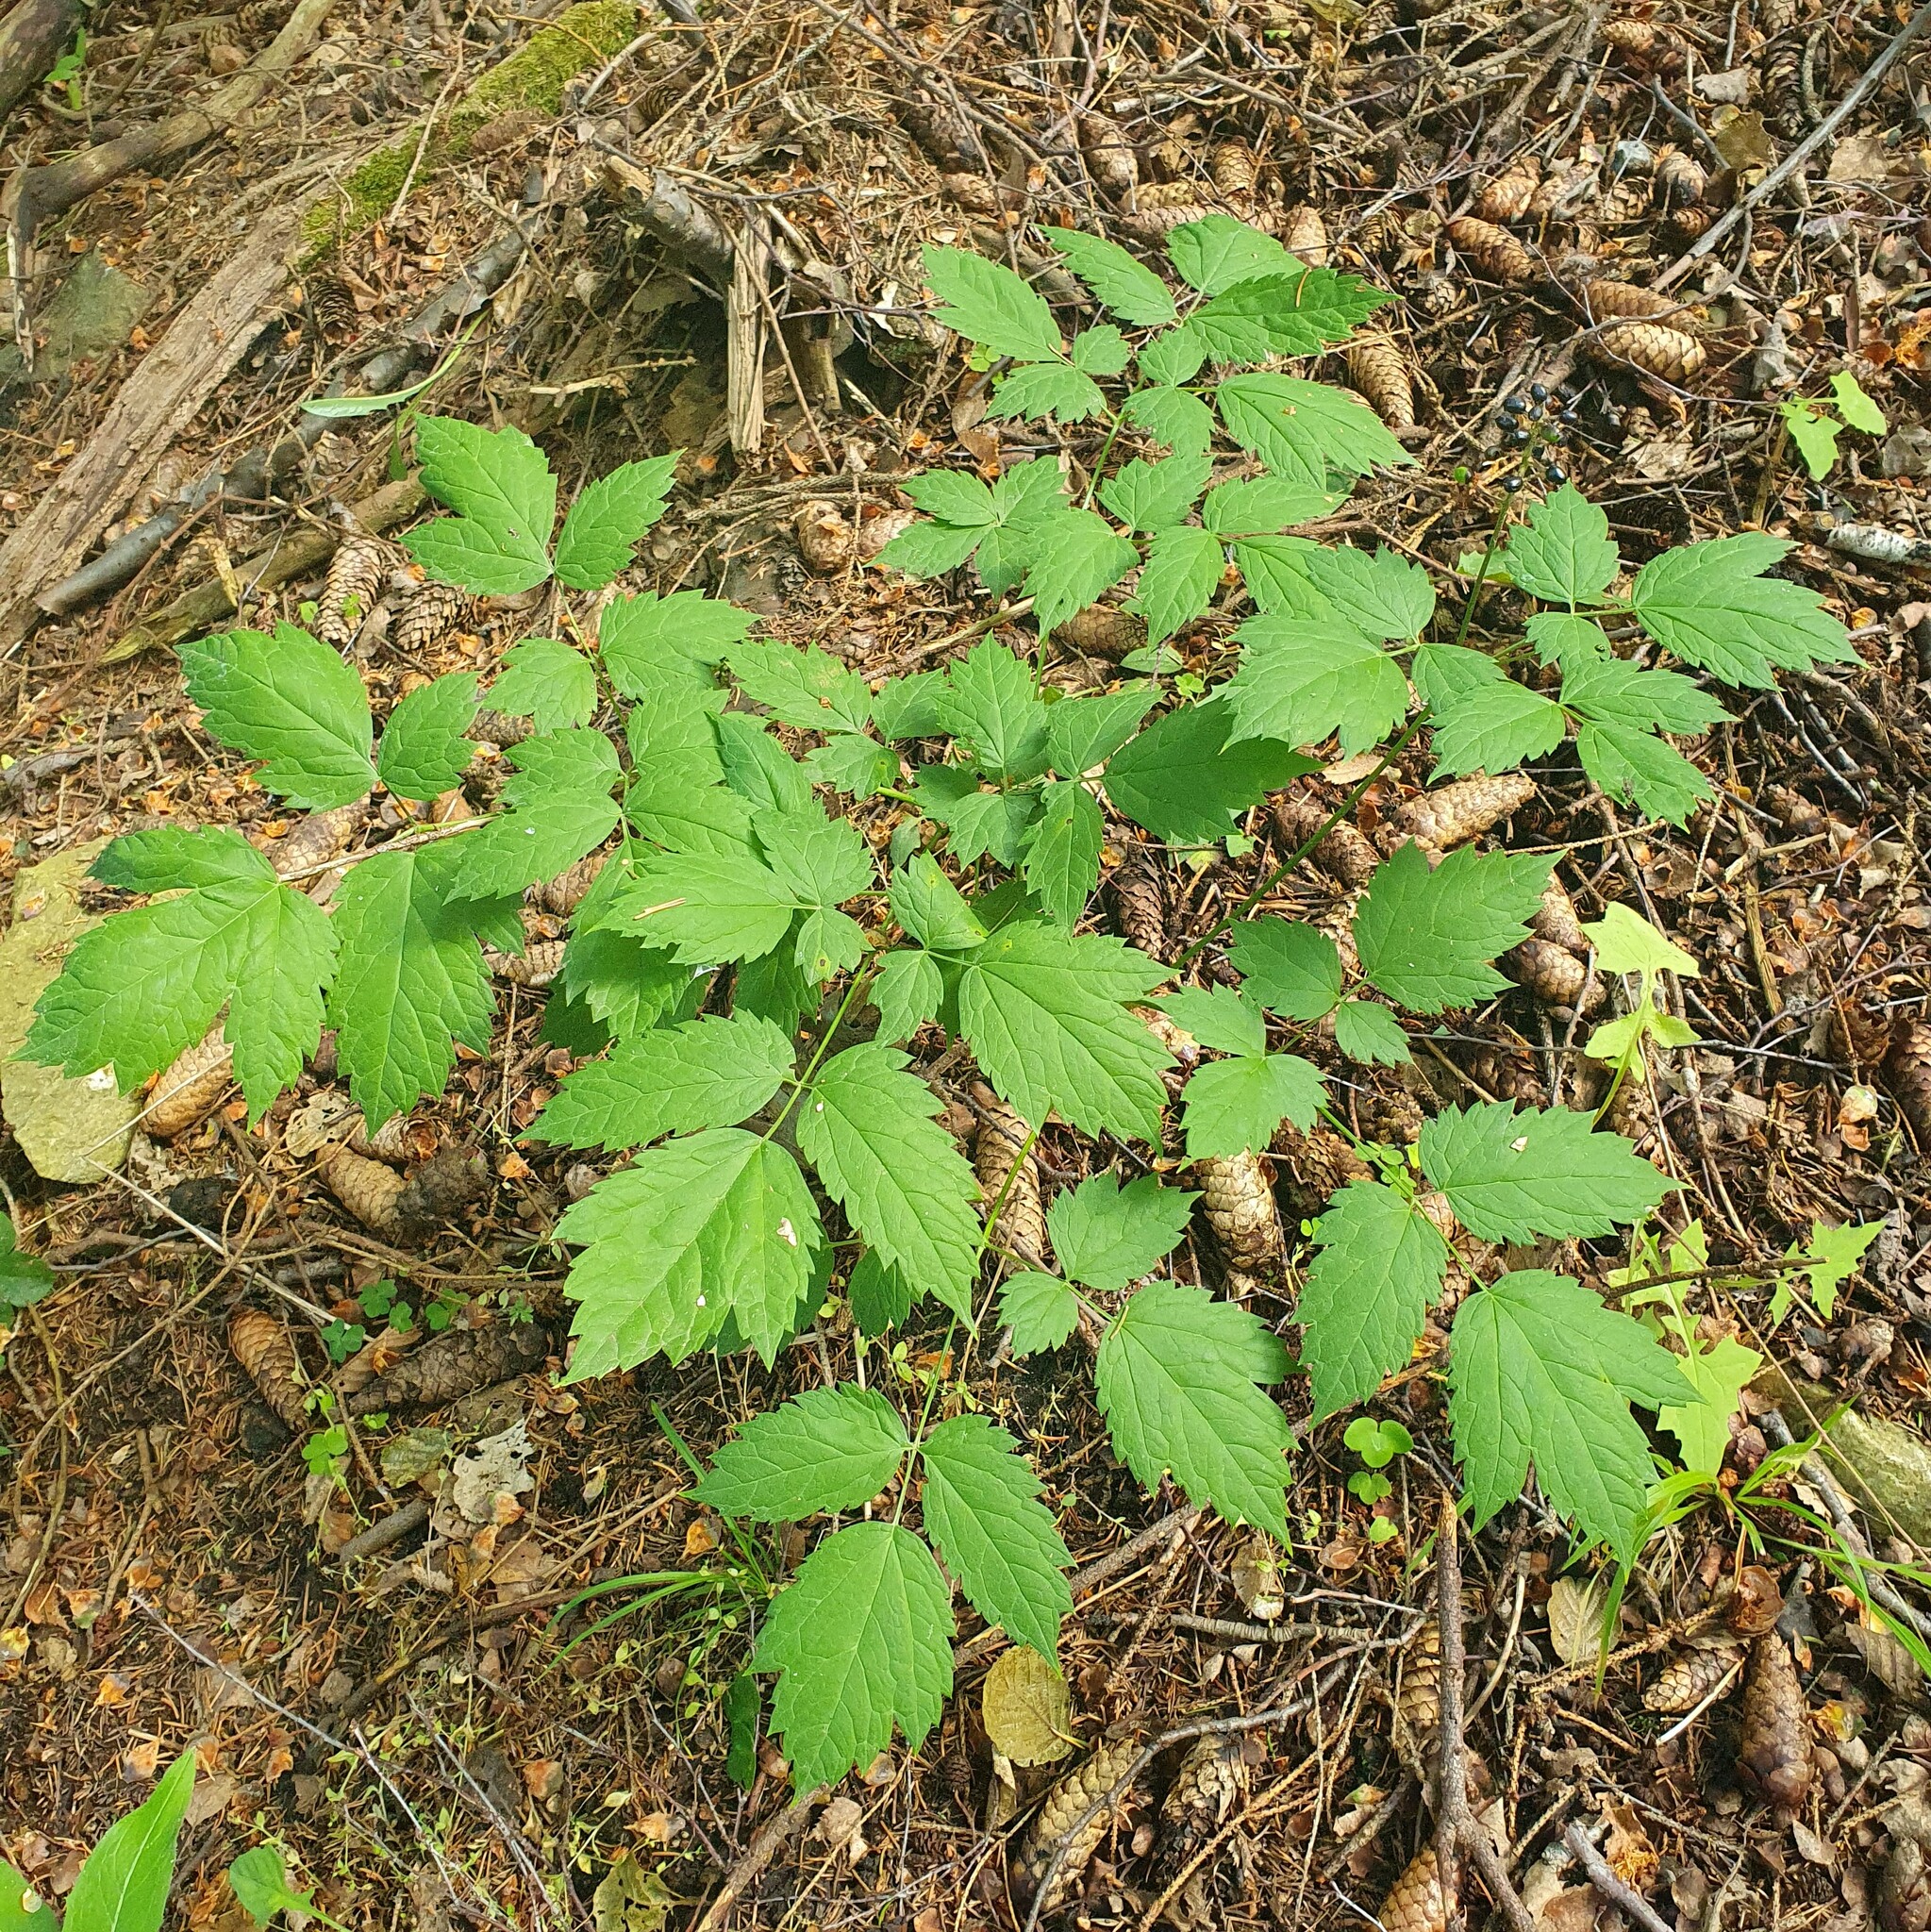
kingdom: Plantae
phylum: Tracheophyta
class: Magnoliopsida
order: Ranunculales
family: Ranunculaceae
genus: Actaea
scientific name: Actaea spicata
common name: Baneberry
